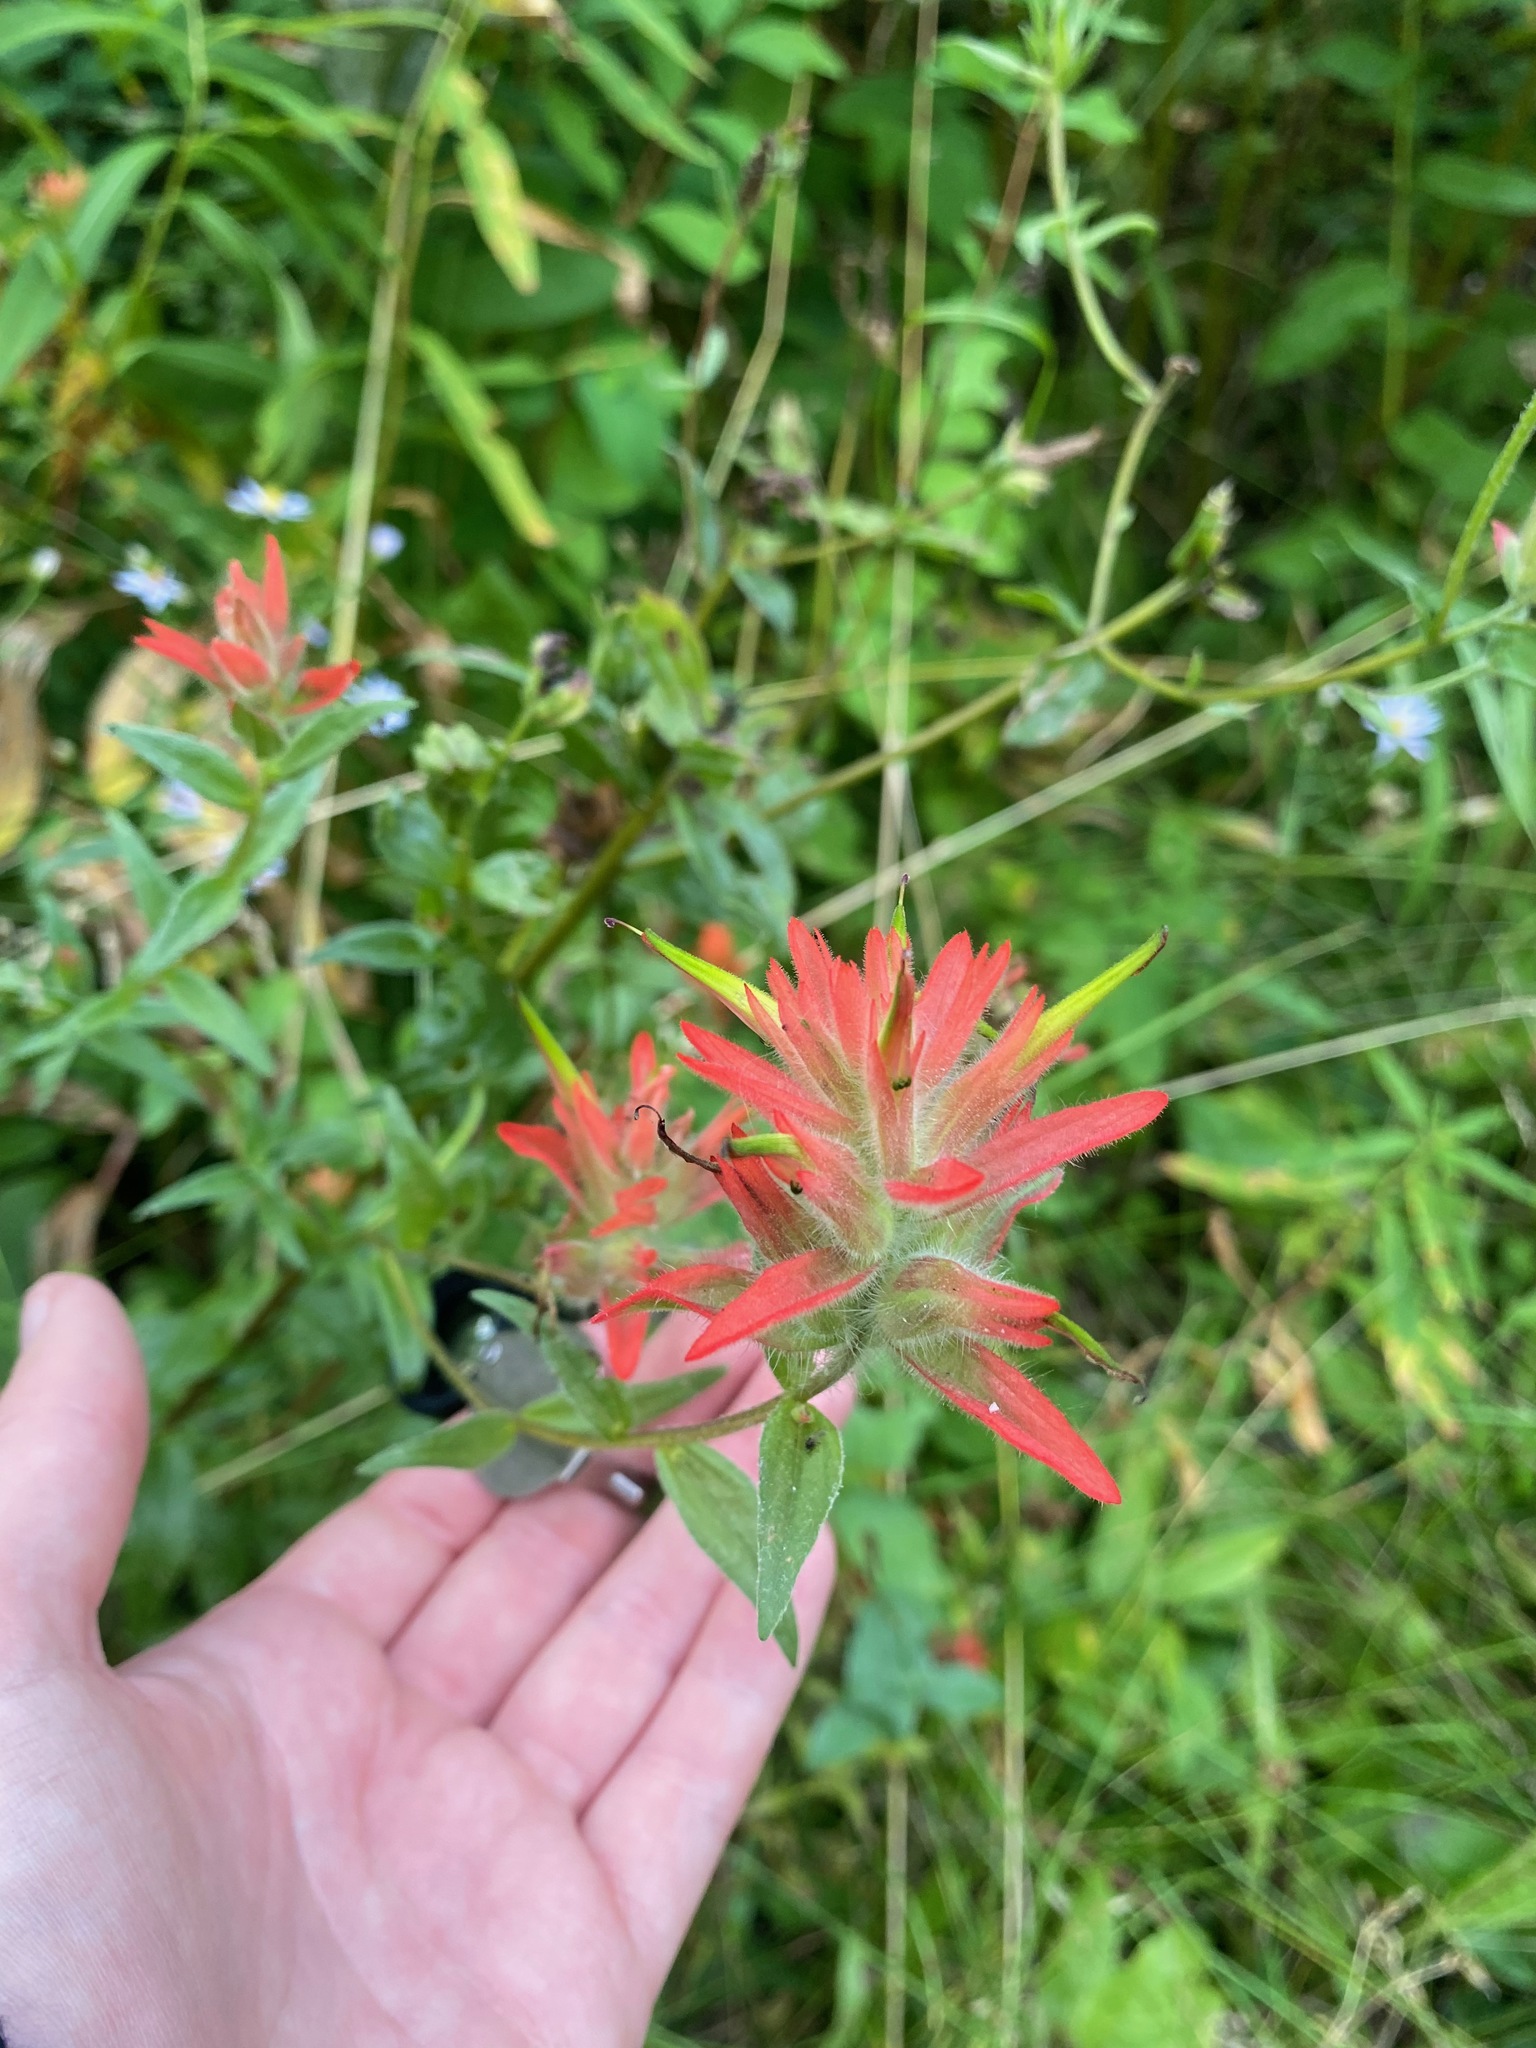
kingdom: Plantae
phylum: Tracheophyta
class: Magnoliopsida
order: Lamiales
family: Orobanchaceae
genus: Castilleja
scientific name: Castilleja miniata
